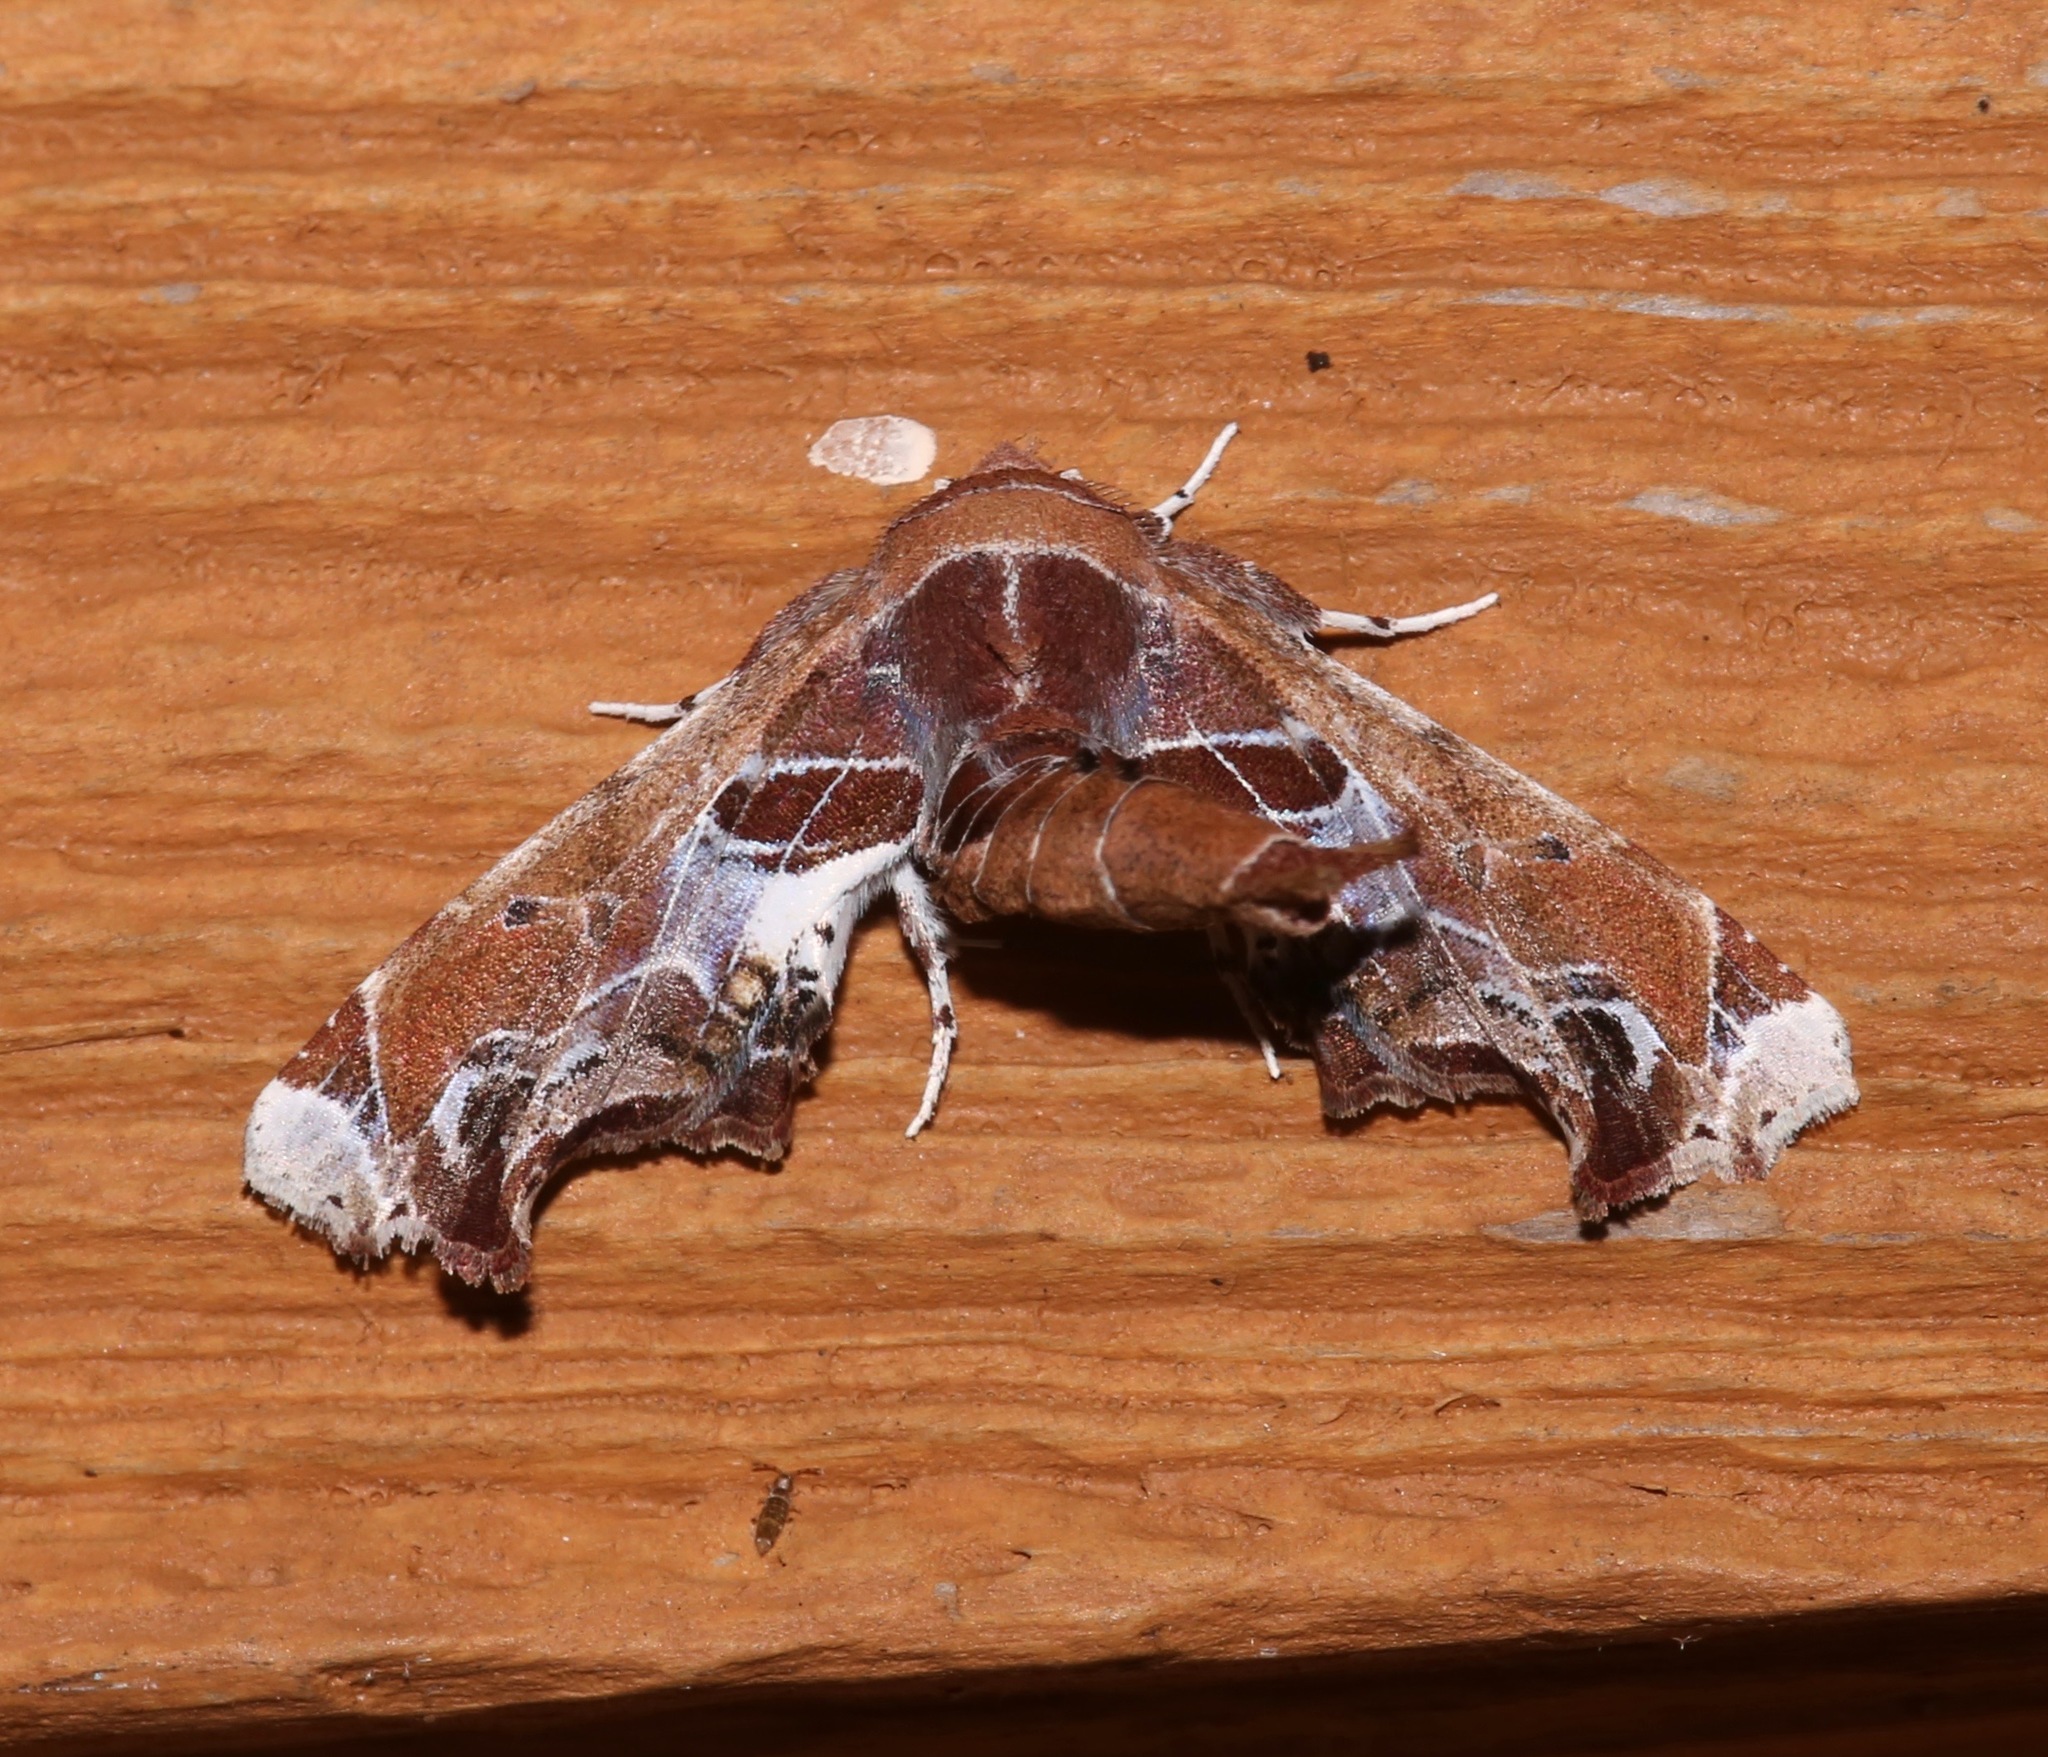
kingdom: Animalia
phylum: Arthropoda
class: Insecta
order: Lepidoptera
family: Euteliidae
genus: Eutelia
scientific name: Eutelia pulcherrimus
